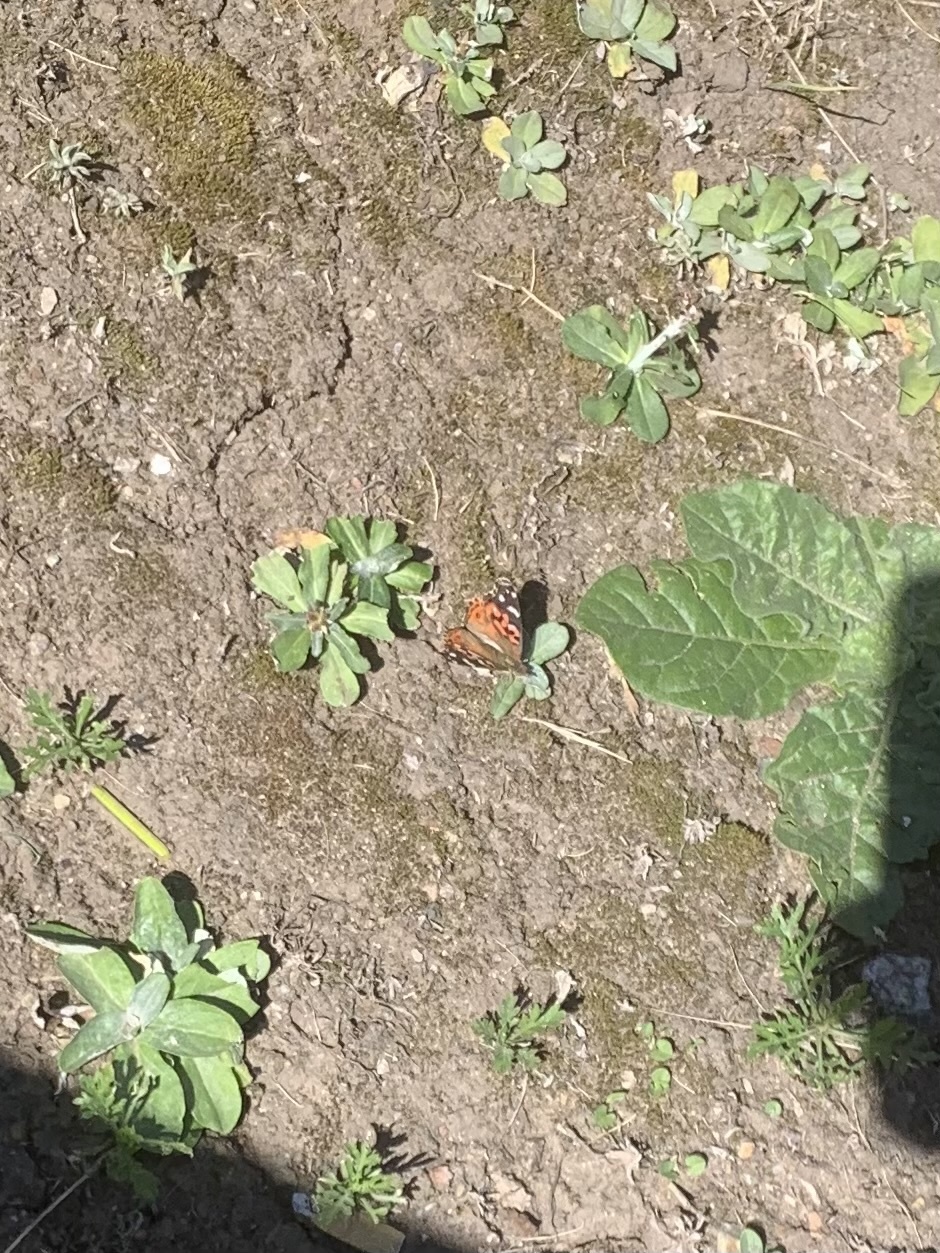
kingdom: Animalia
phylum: Arthropoda
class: Insecta
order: Lepidoptera
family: Nymphalidae
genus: Vanessa
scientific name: Vanessa braziliensis
